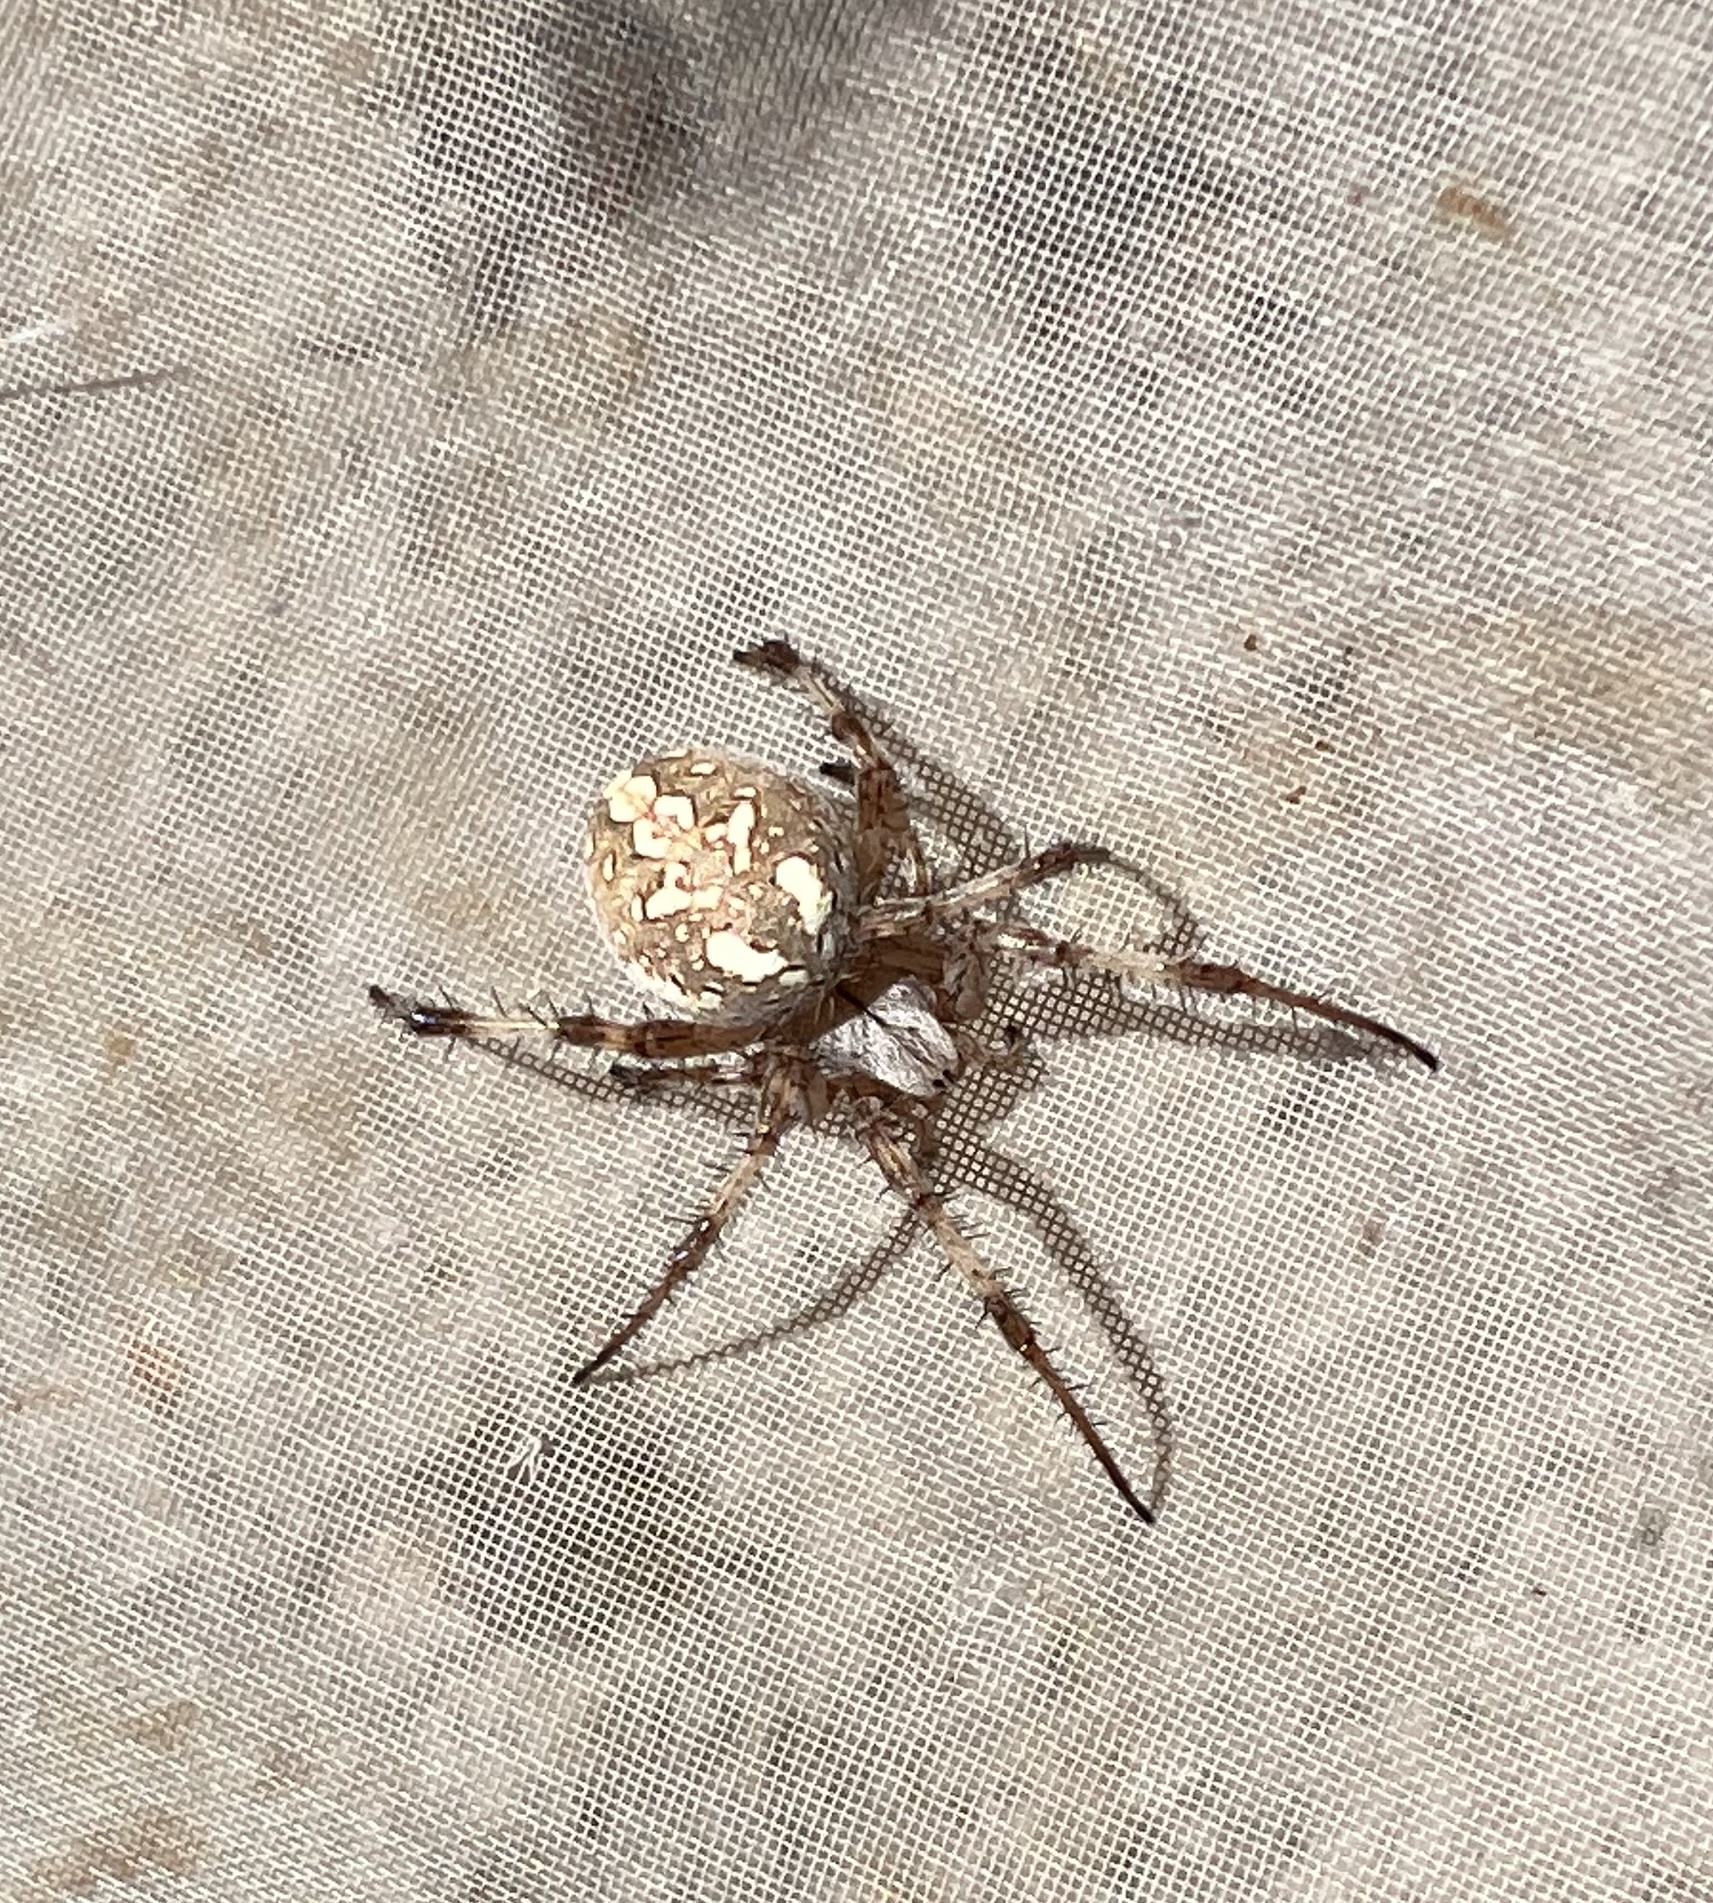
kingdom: Animalia
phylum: Arthropoda
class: Arachnida
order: Araneae
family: Araneidae
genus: Neoscona
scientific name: Neoscona oaxacensis
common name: Orb weavers
